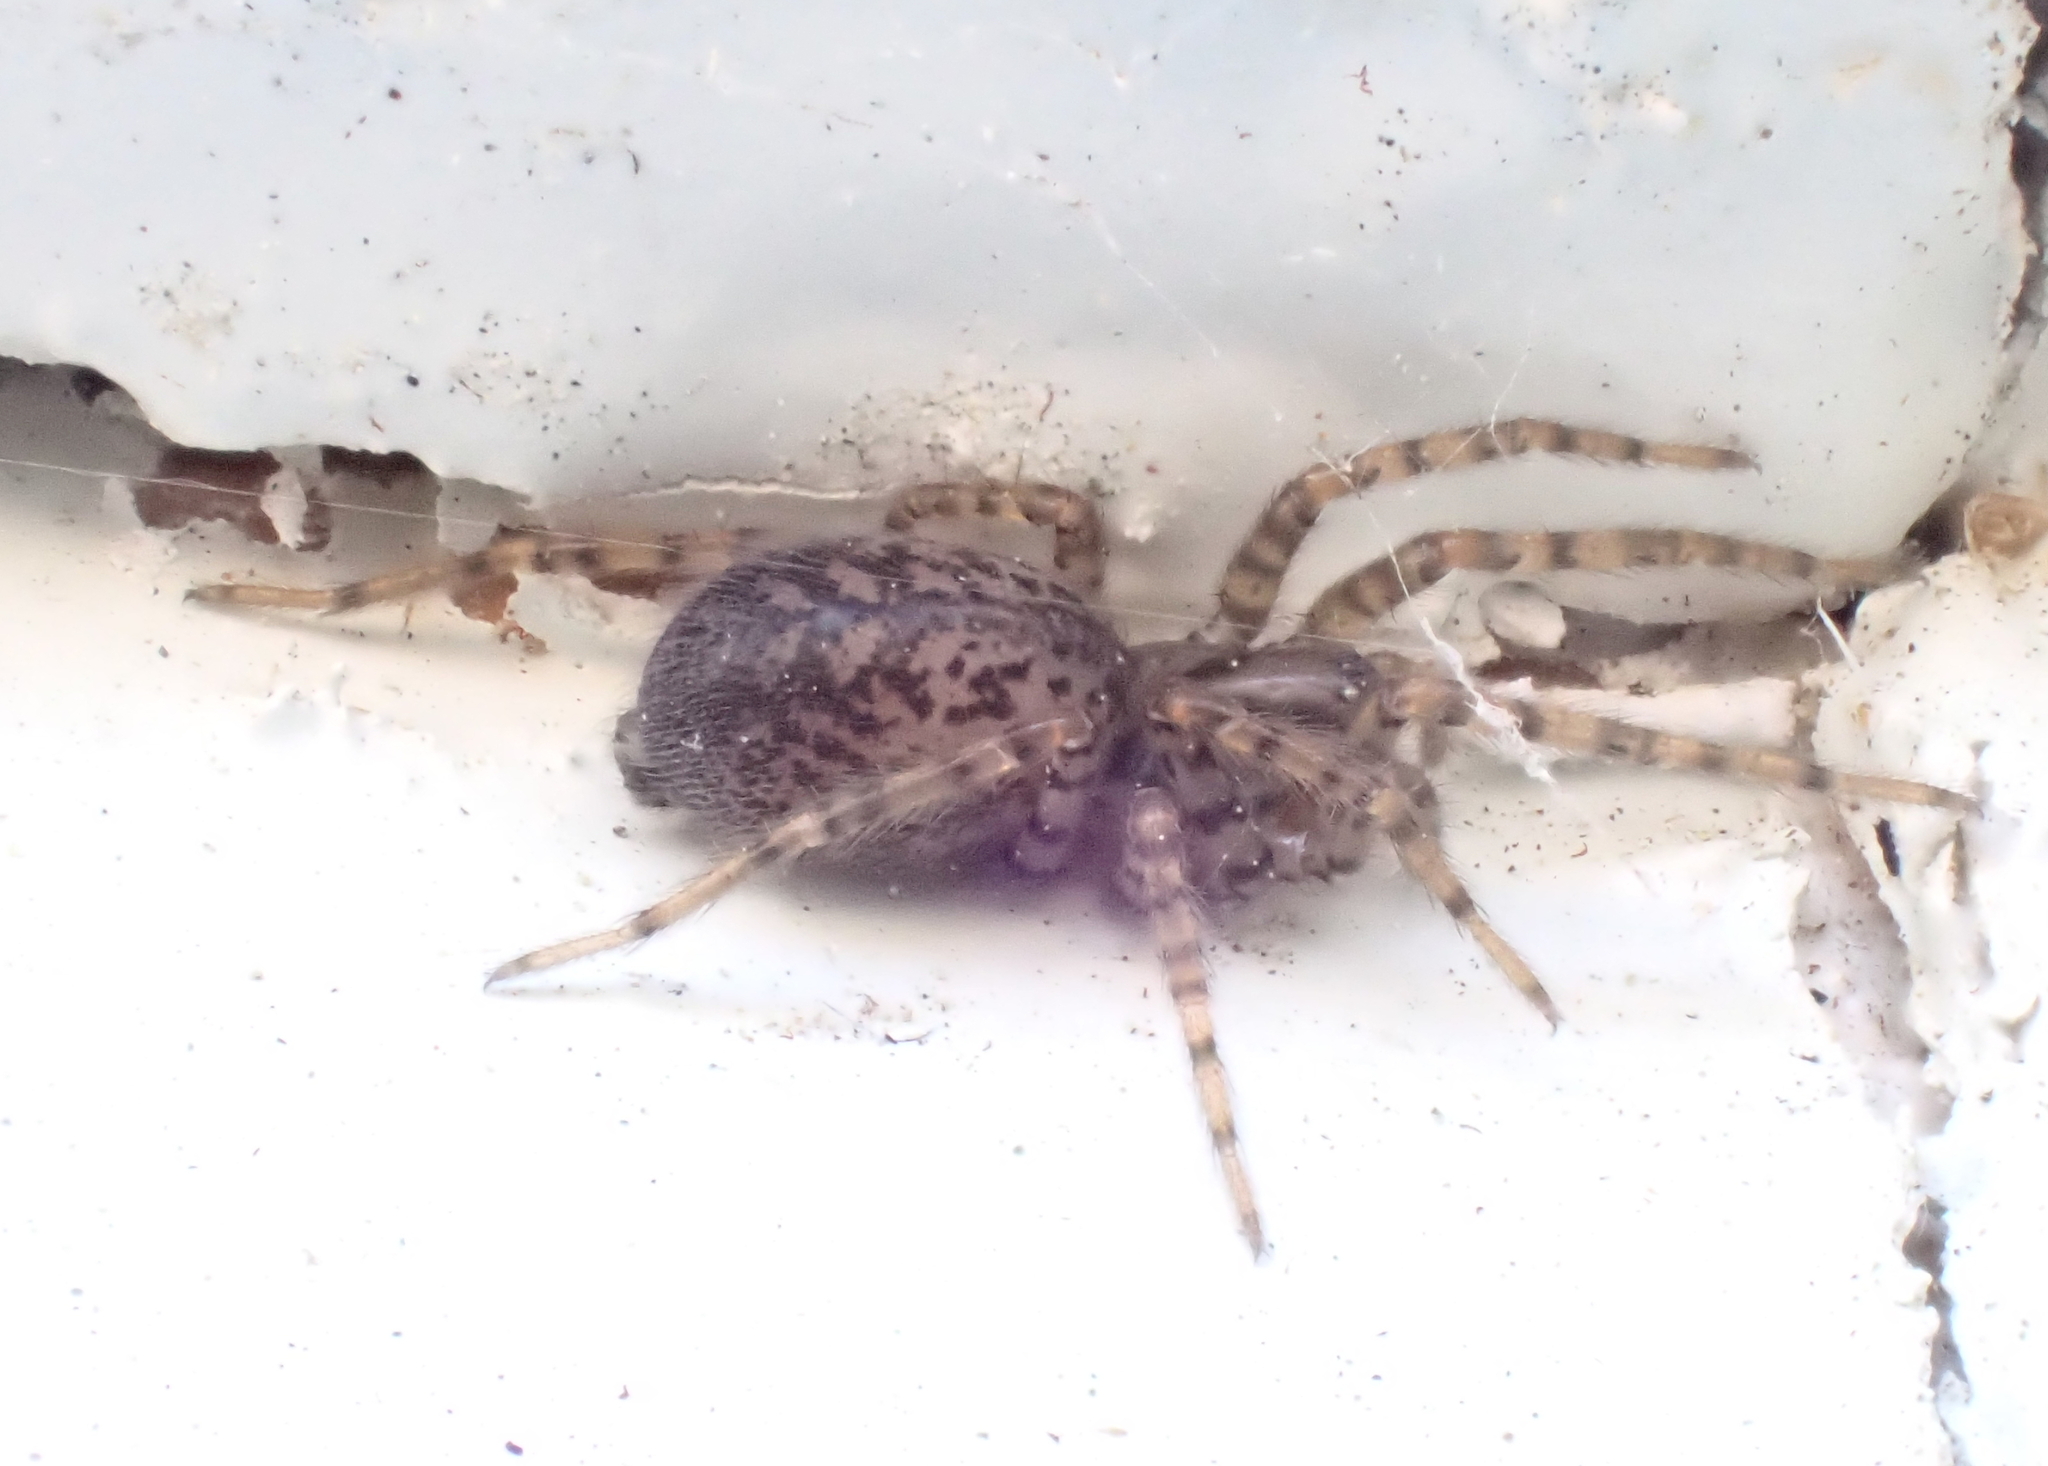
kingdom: Animalia
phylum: Arthropoda
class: Arachnida
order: Araneae
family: Agelenidae
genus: Coras
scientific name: Coras
